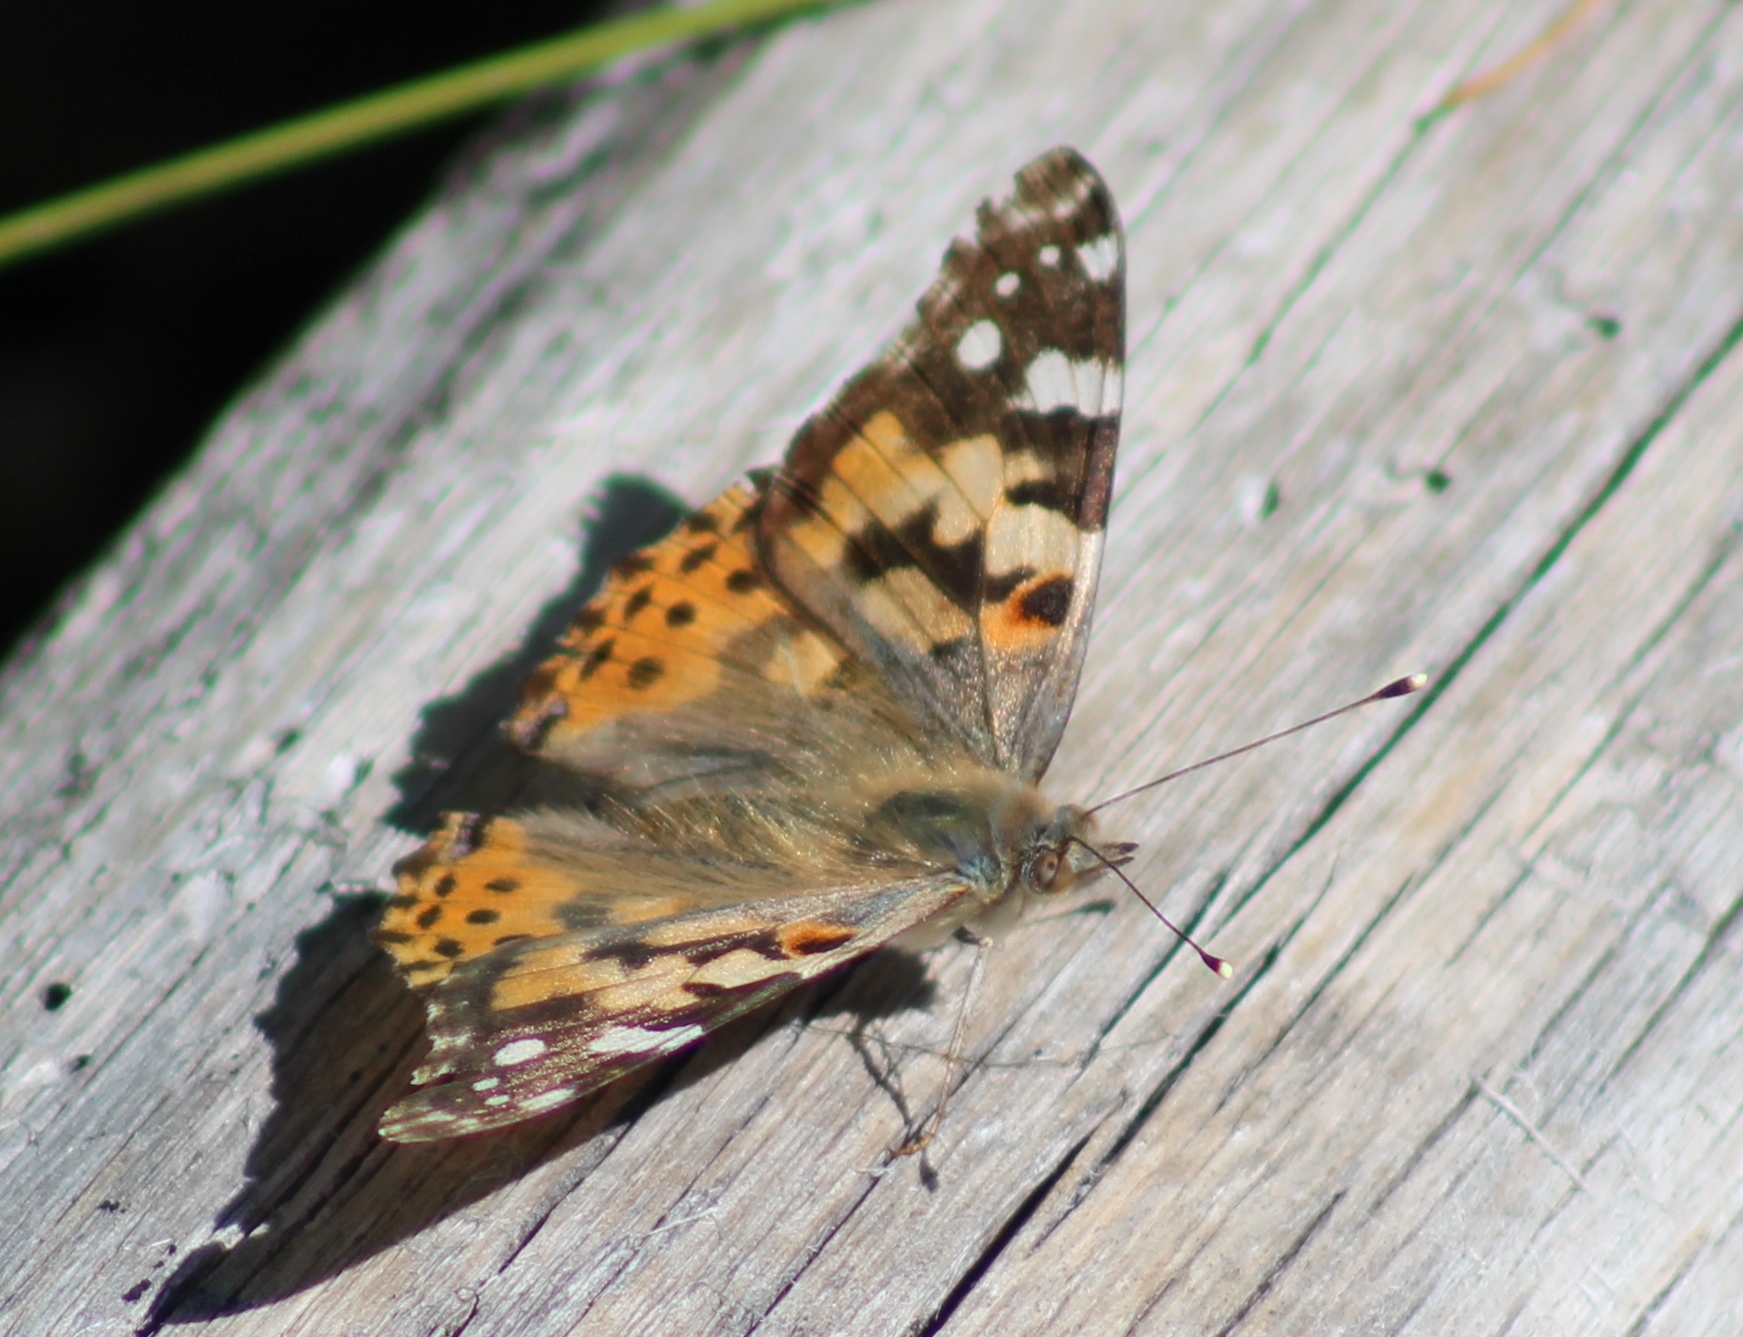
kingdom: Animalia
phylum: Arthropoda
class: Insecta
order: Lepidoptera
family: Nymphalidae
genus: Vanessa
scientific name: Vanessa cardui
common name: Painted lady
